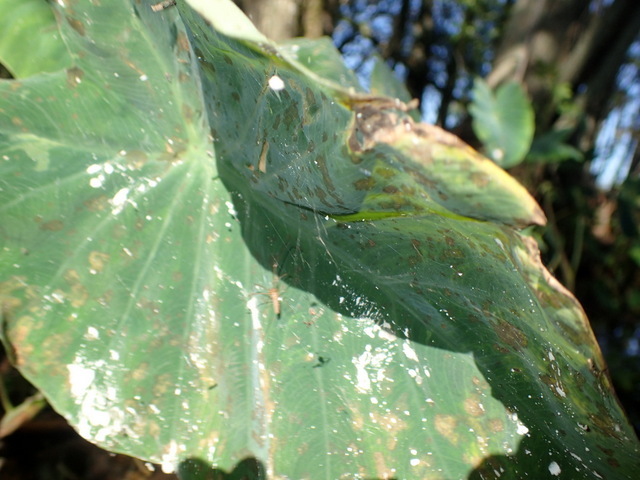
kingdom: Animalia
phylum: Arthropoda
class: Insecta
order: Hemiptera
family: Delphacidae
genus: Tarophagus
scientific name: Tarophagus colocasiae
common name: Taro planthopper
